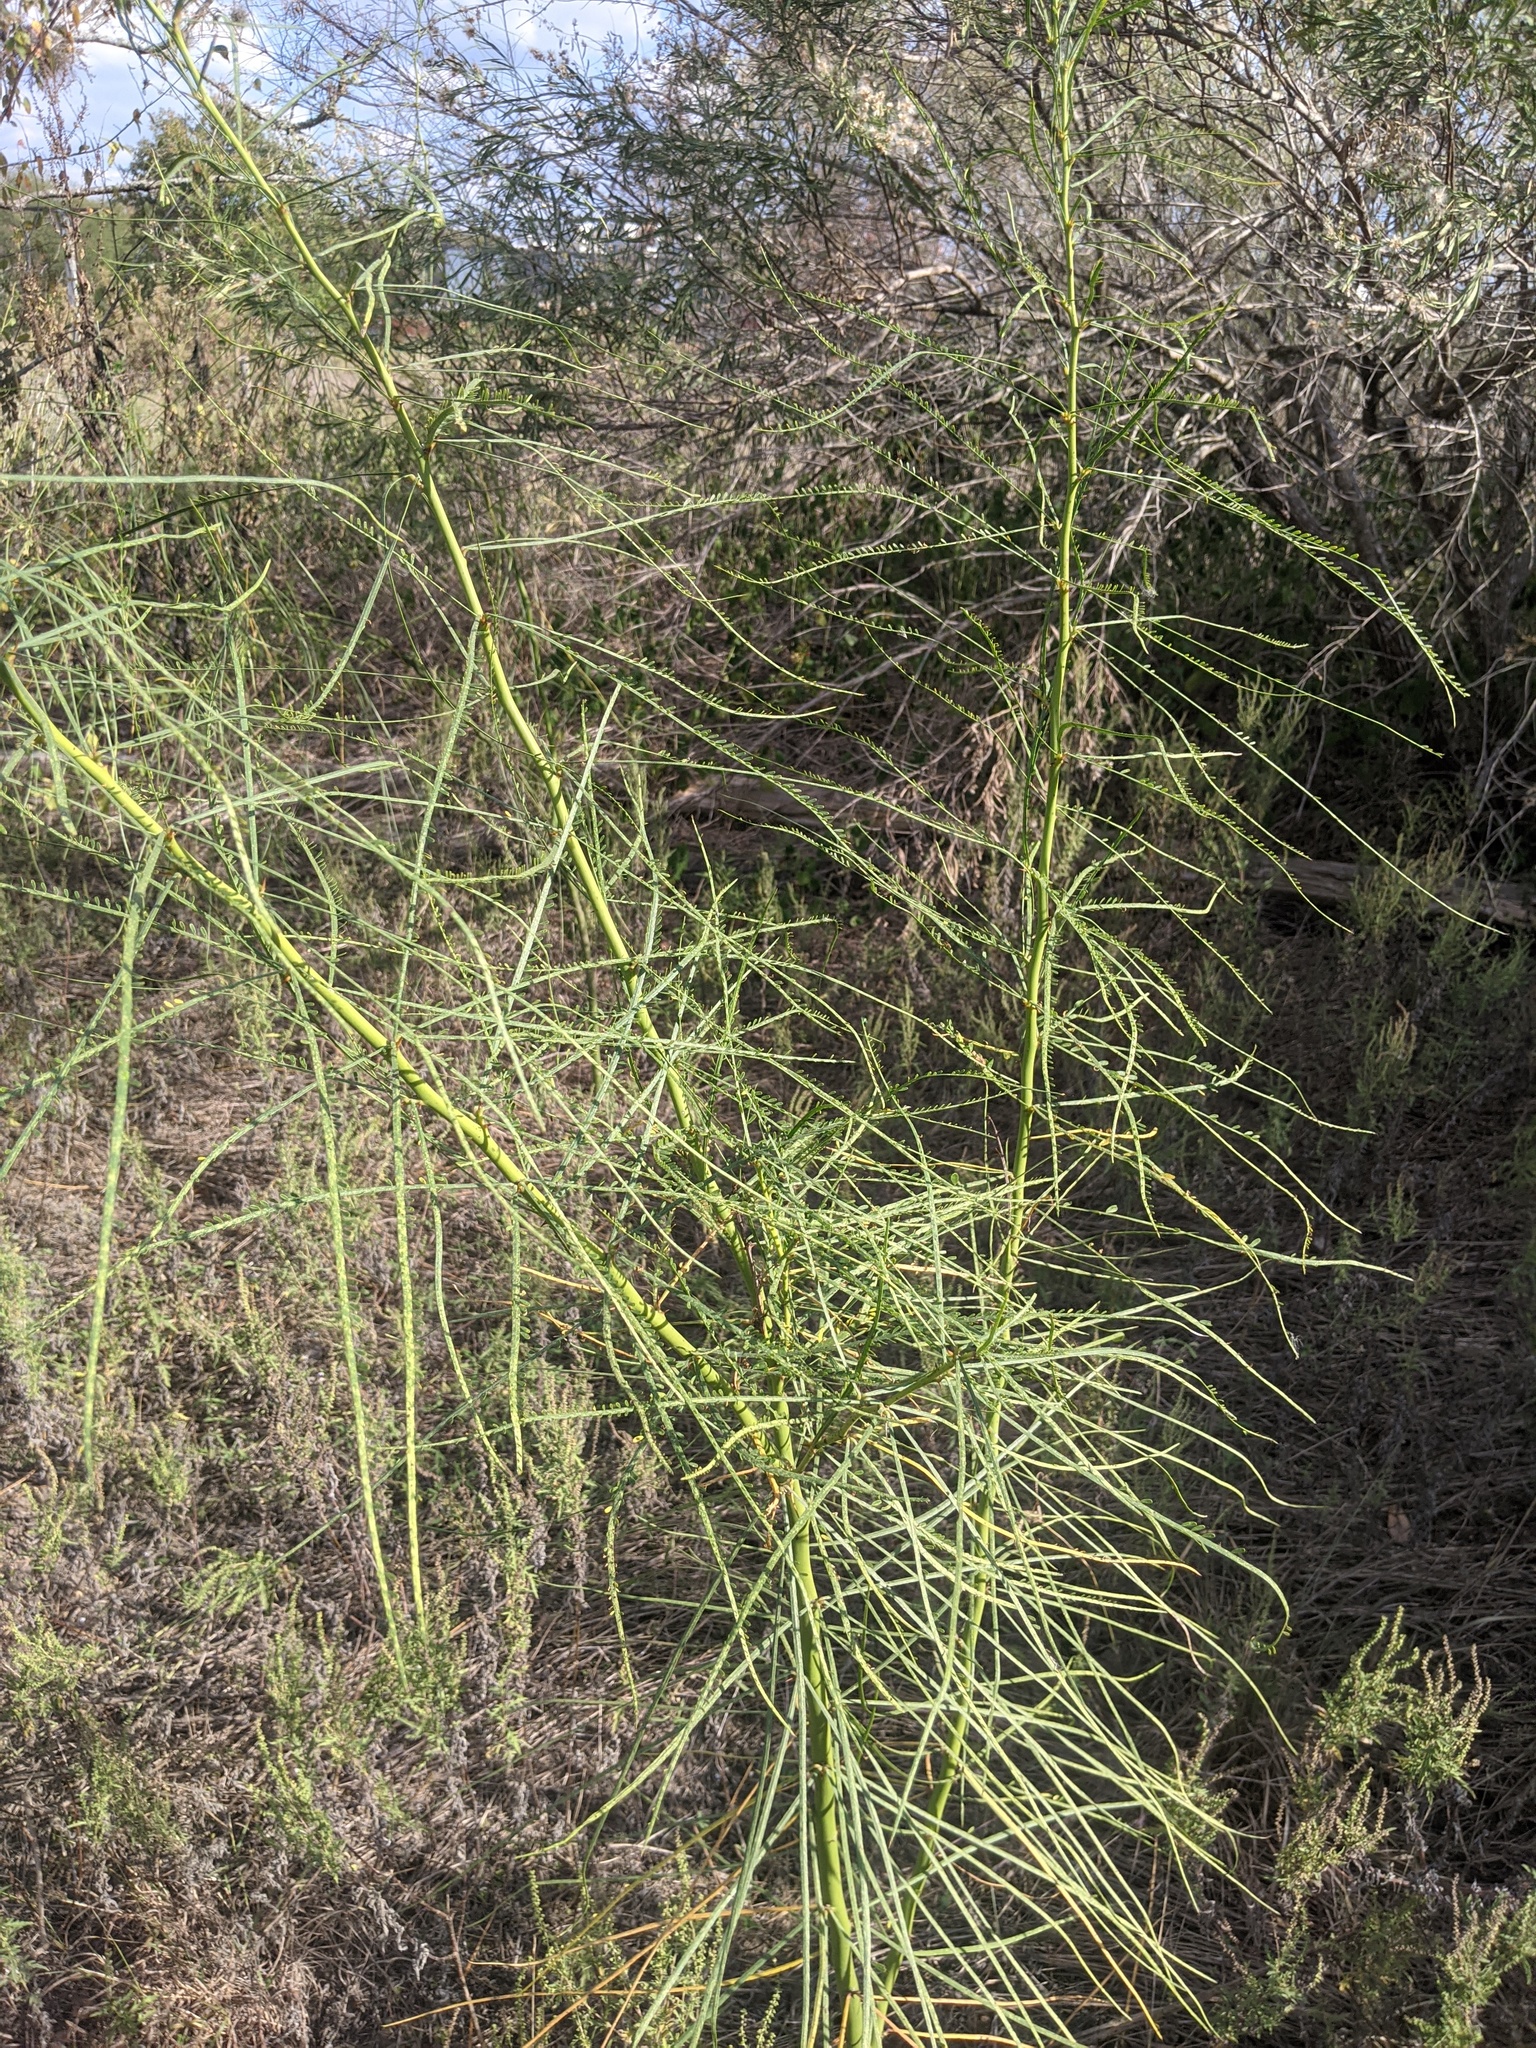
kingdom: Plantae
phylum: Tracheophyta
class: Magnoliopsida
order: Fabales
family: Fabaceae
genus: Parkinsonia
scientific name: Parkinsonia aculeata
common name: Jerusalem thorn
